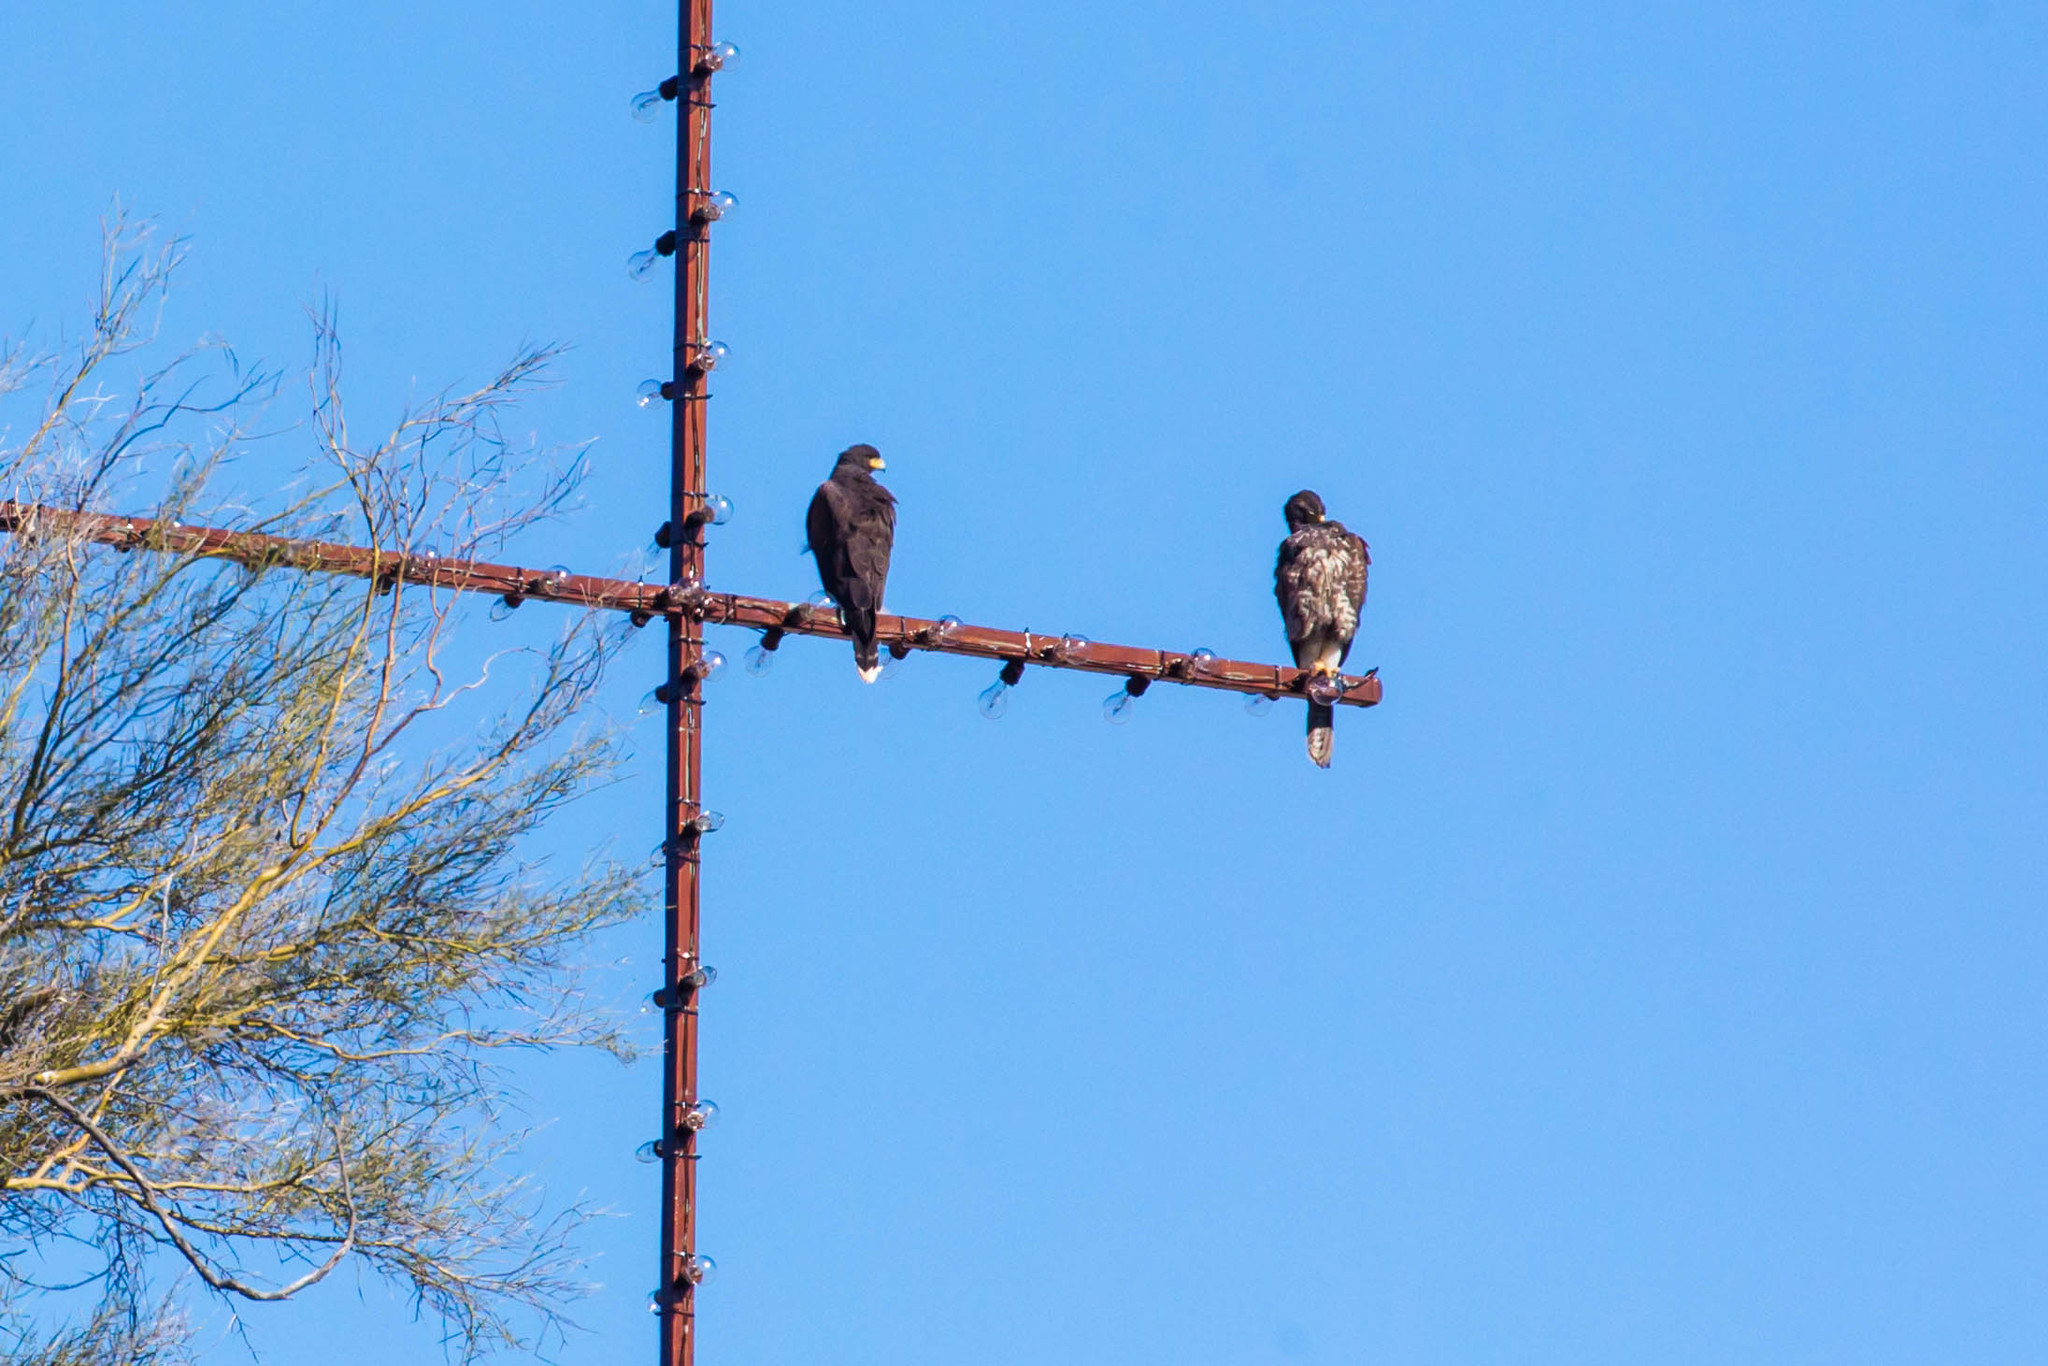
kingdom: Animalia
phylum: Chordata
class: Aves
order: Accipitriformes
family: Accipitridae
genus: Parabuteo
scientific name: Parabuteo unicinctus
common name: Harris's hawk
